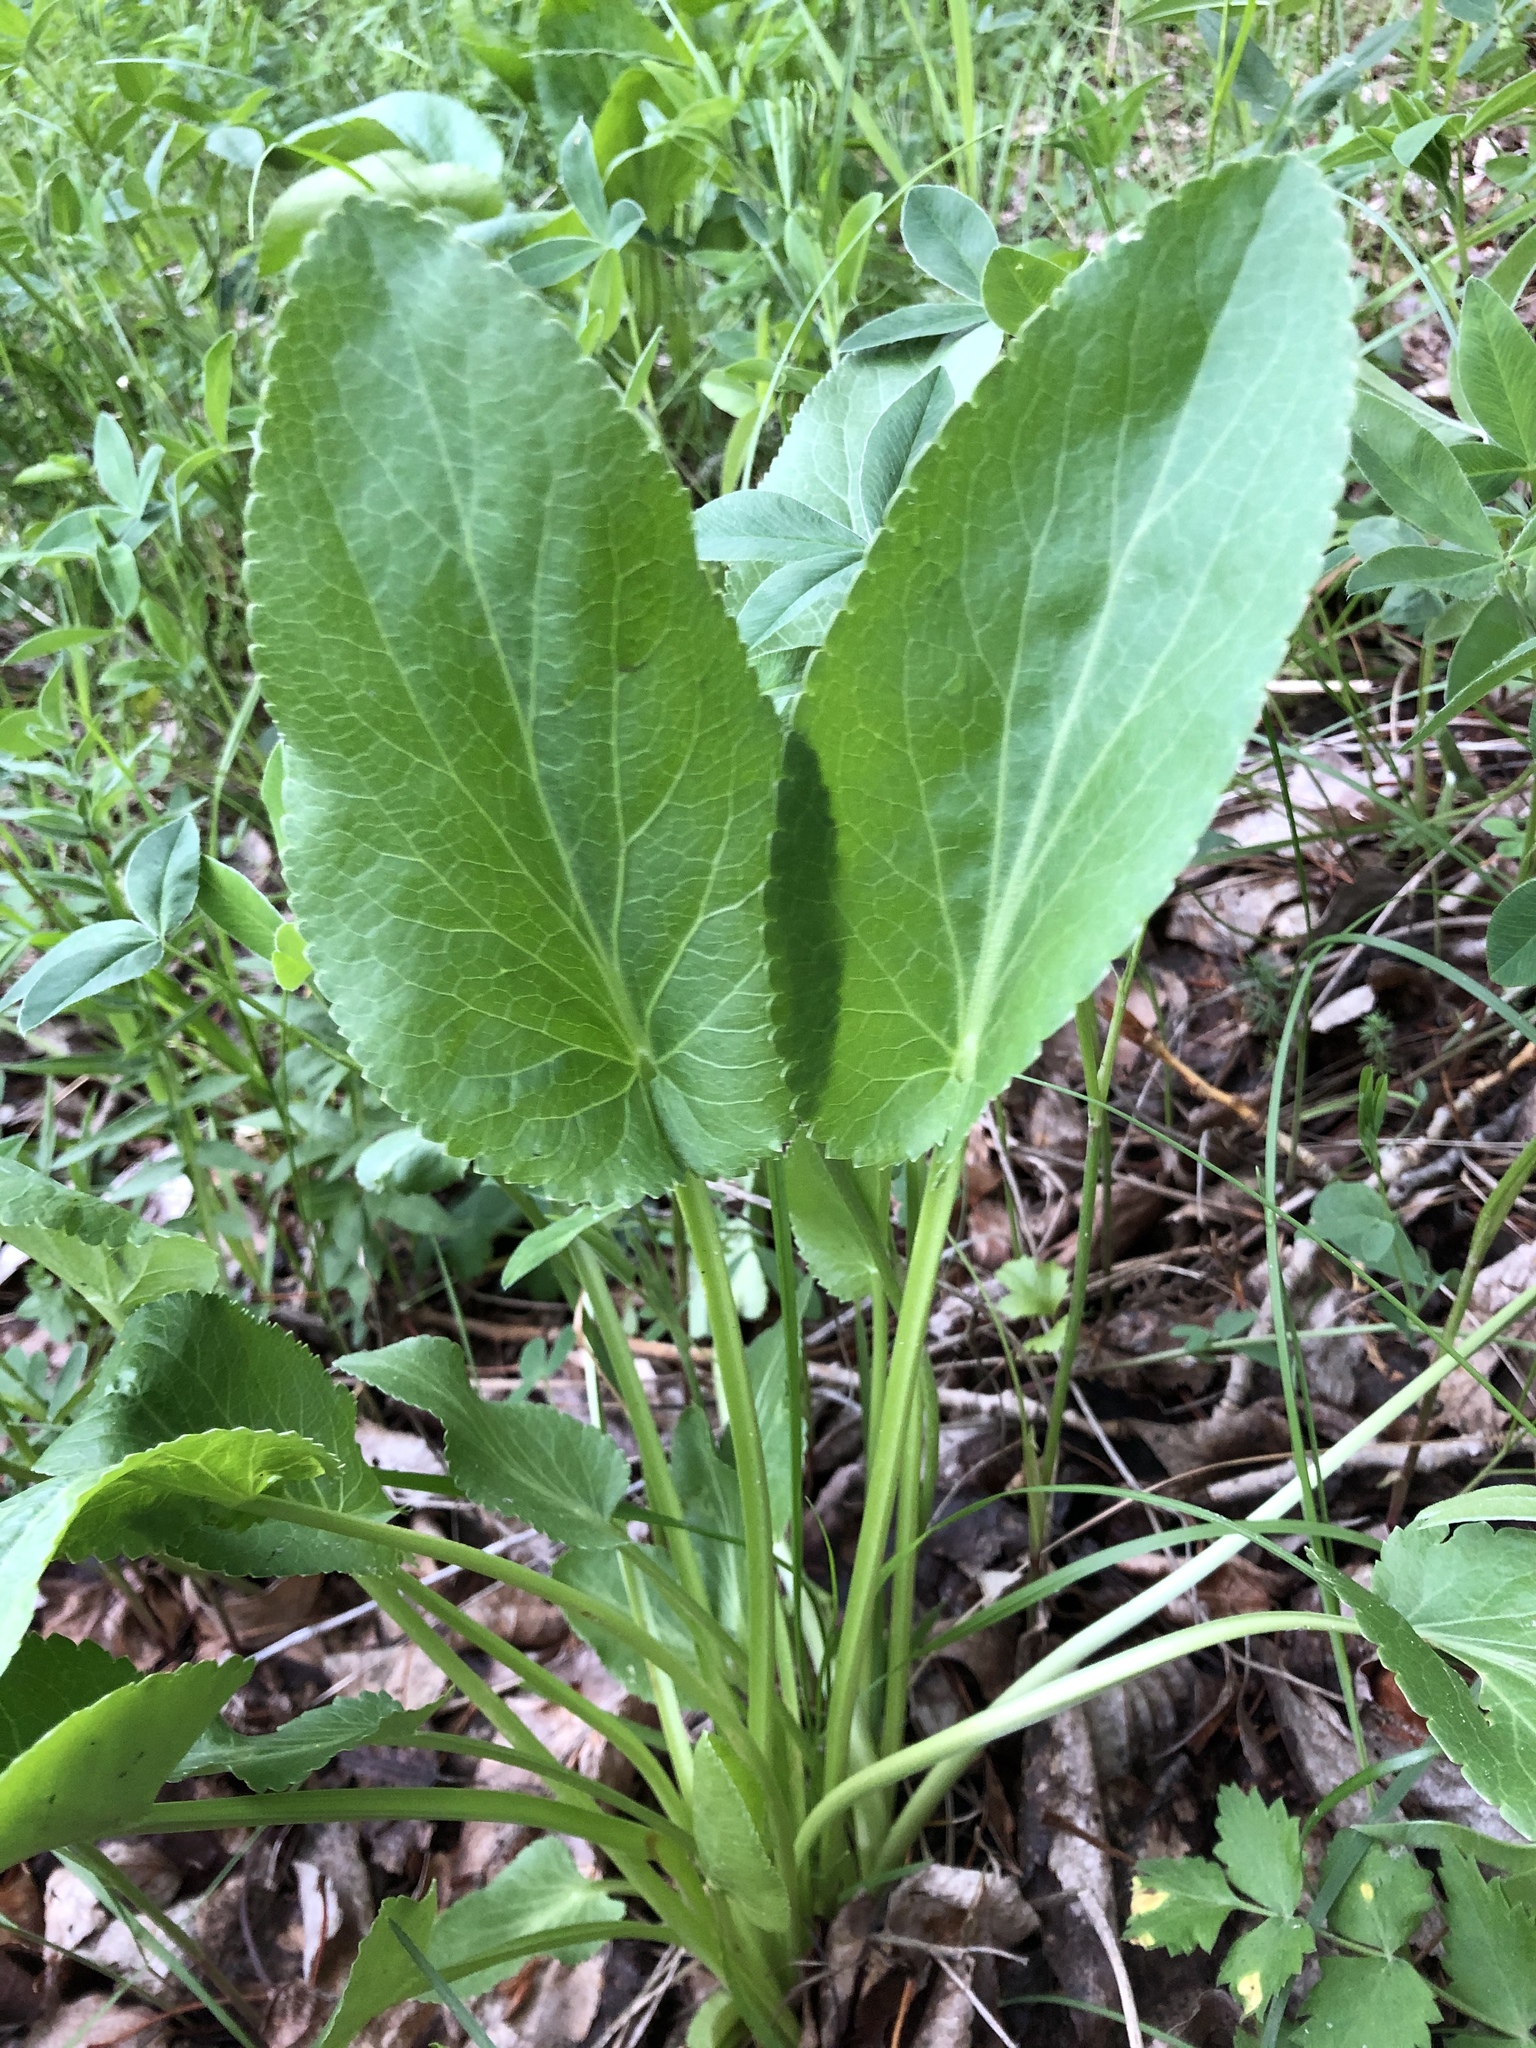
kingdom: Plantae
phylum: Tracheophyta
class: Magnoliopsida
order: Apiales
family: Apiaceae
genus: Eryngium
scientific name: Eryngium planum
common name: Blue eryngo
